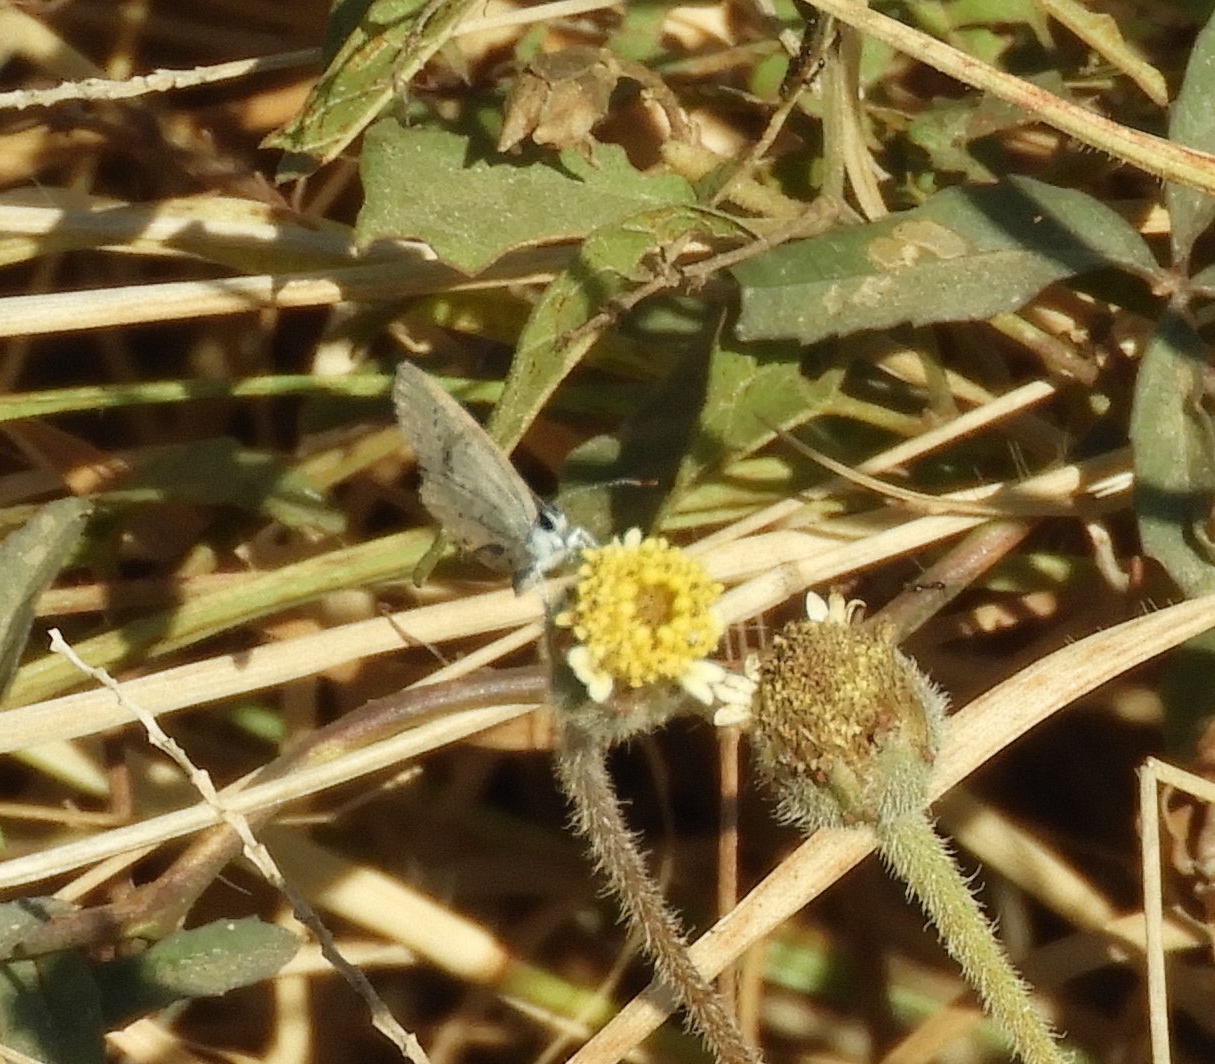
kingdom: Plantae
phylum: Tracheophyta
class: Magnoliopsida
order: Asterales
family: Asteraceae
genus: Tridax
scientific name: Tridax procumbens
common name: Coatbuttons
